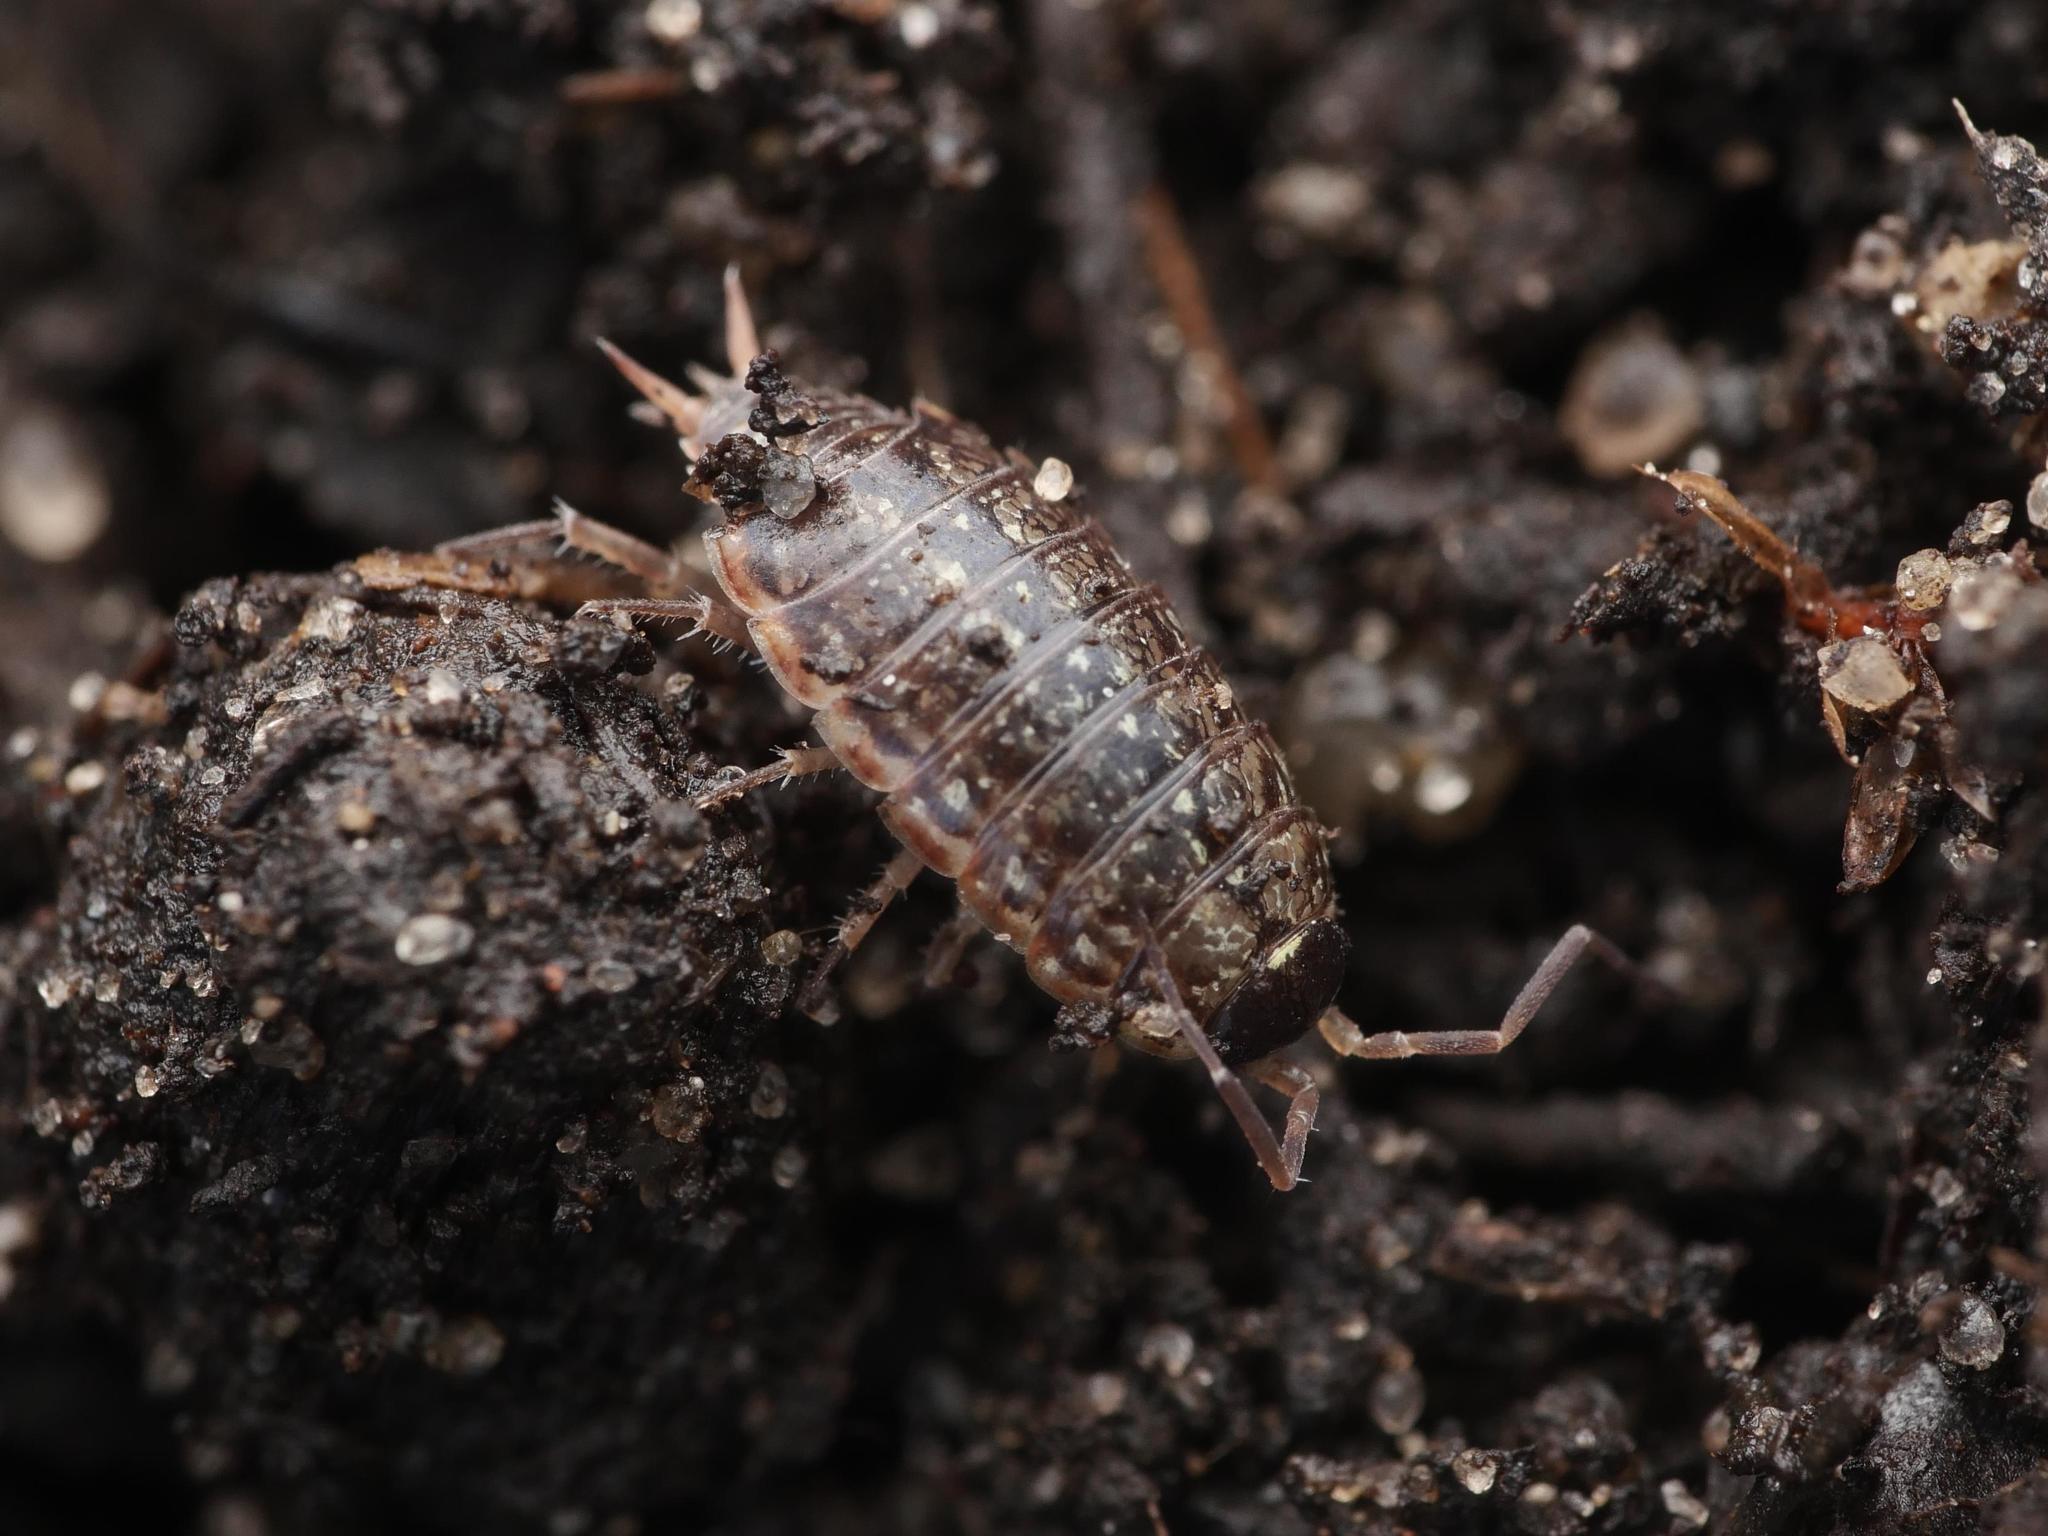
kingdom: Animalia
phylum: Arthropoda
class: Malacostraca
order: Isopoda
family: Philosciidae
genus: Philoscia
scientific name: Philoscia muscorum
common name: Common striped woodlouse
